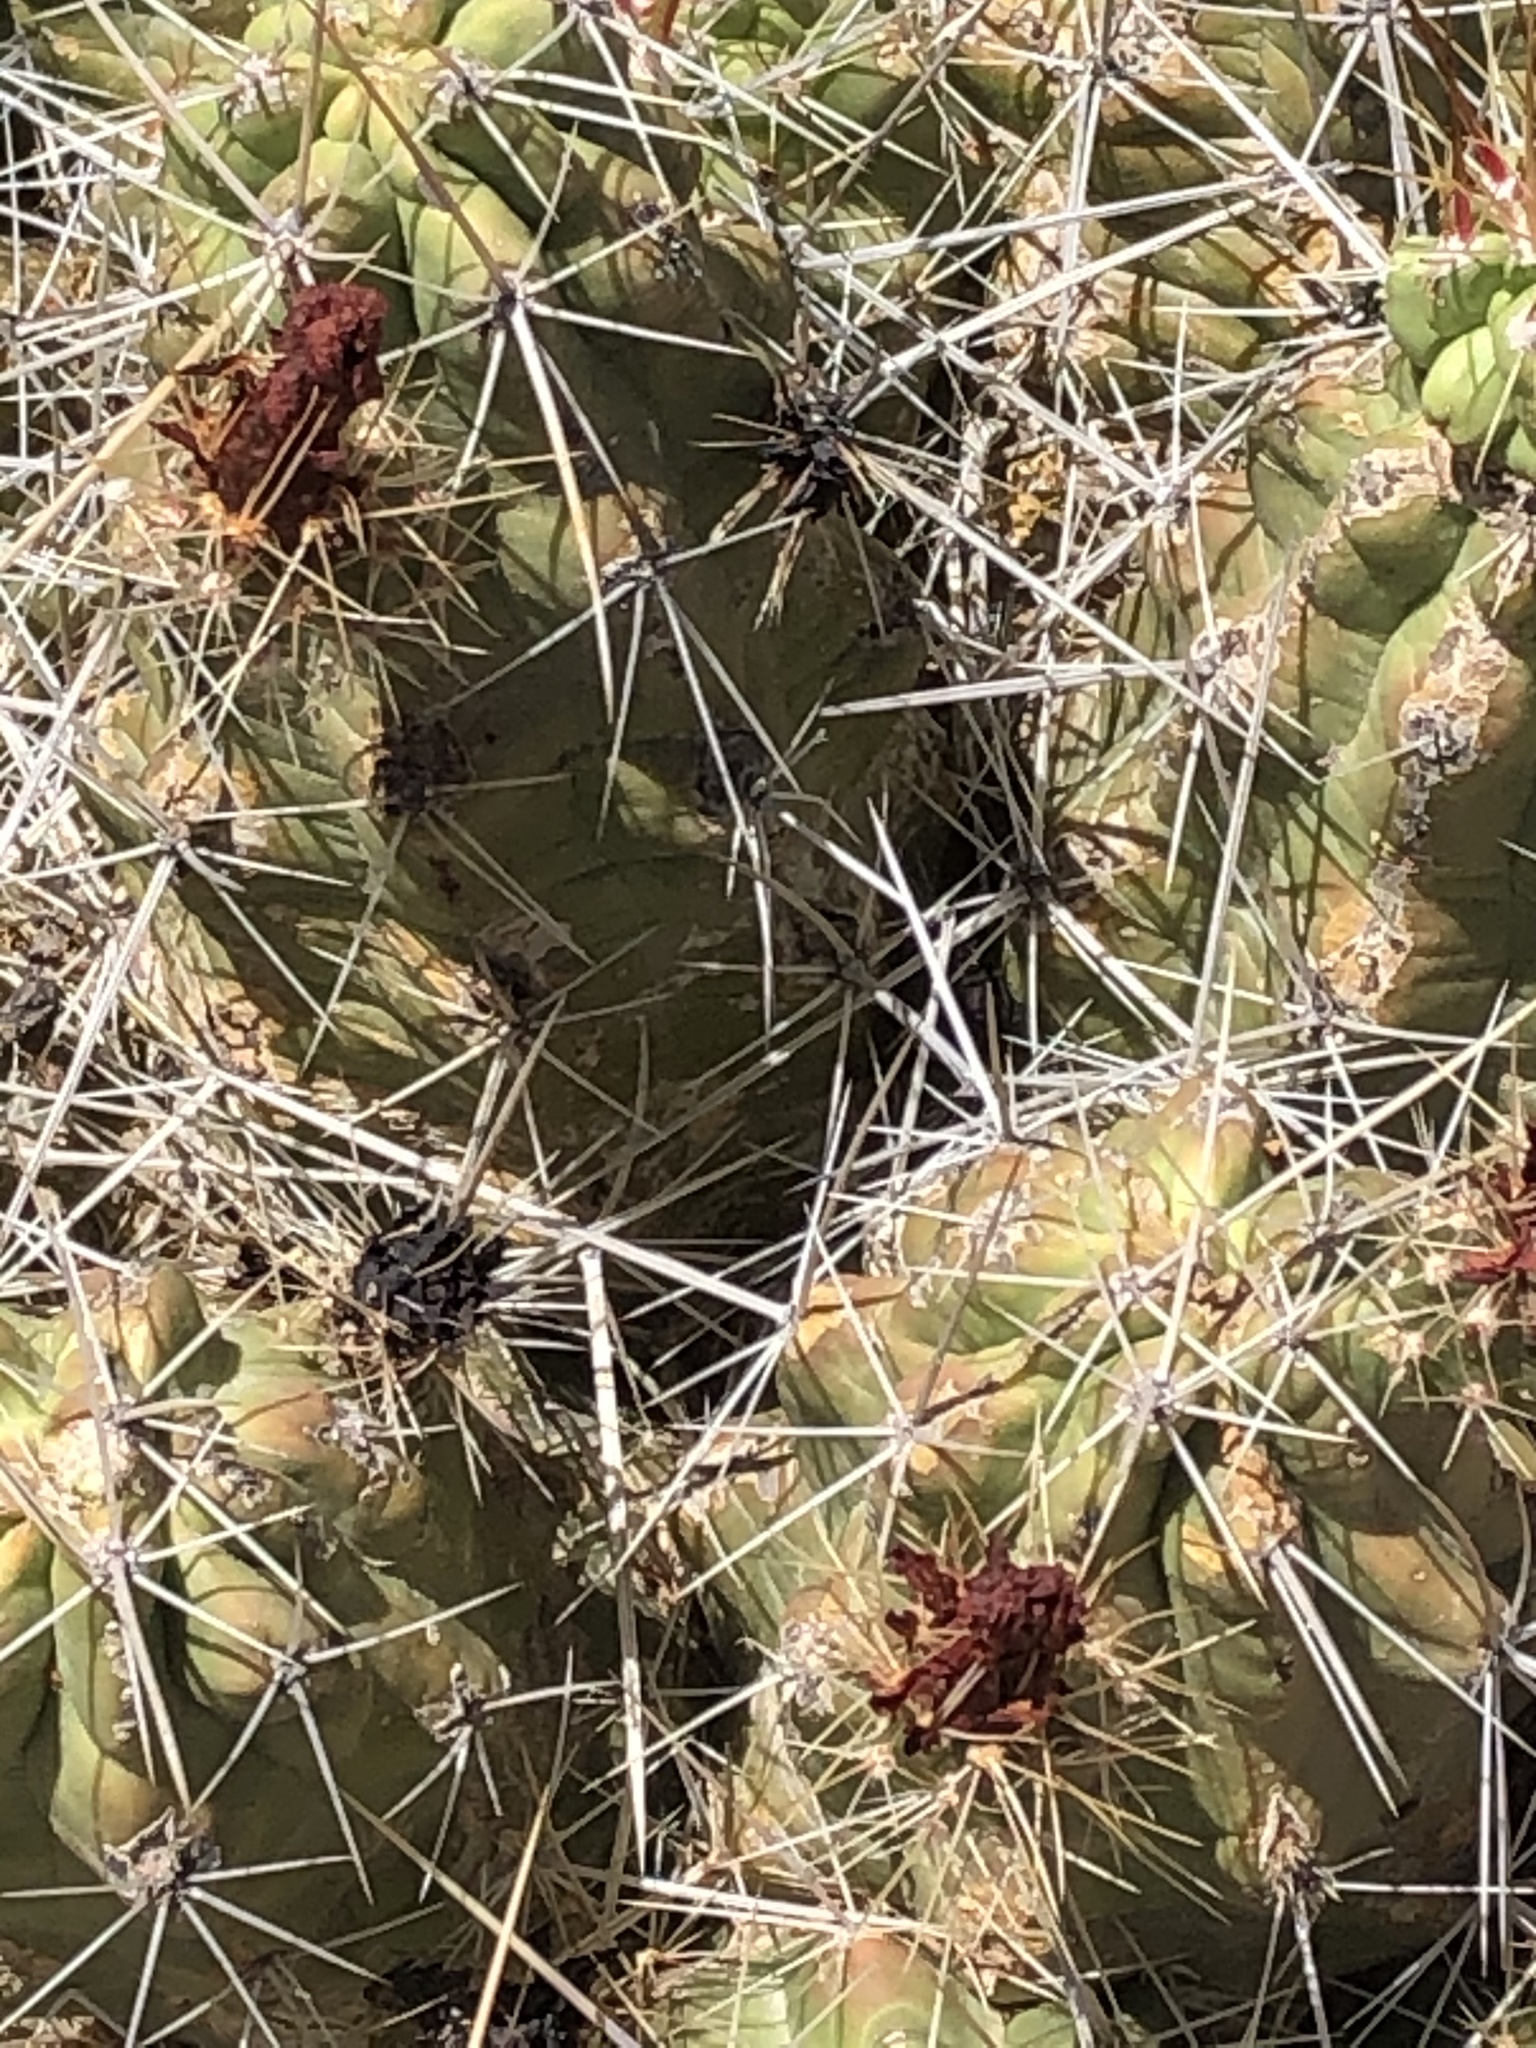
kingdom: Plantae
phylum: Tracheophyta
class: Magnoliopsida
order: Caryophyllales
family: Cactaceae
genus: Echinocereus
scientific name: Echinocereus enneacanthus
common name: Pitaya
